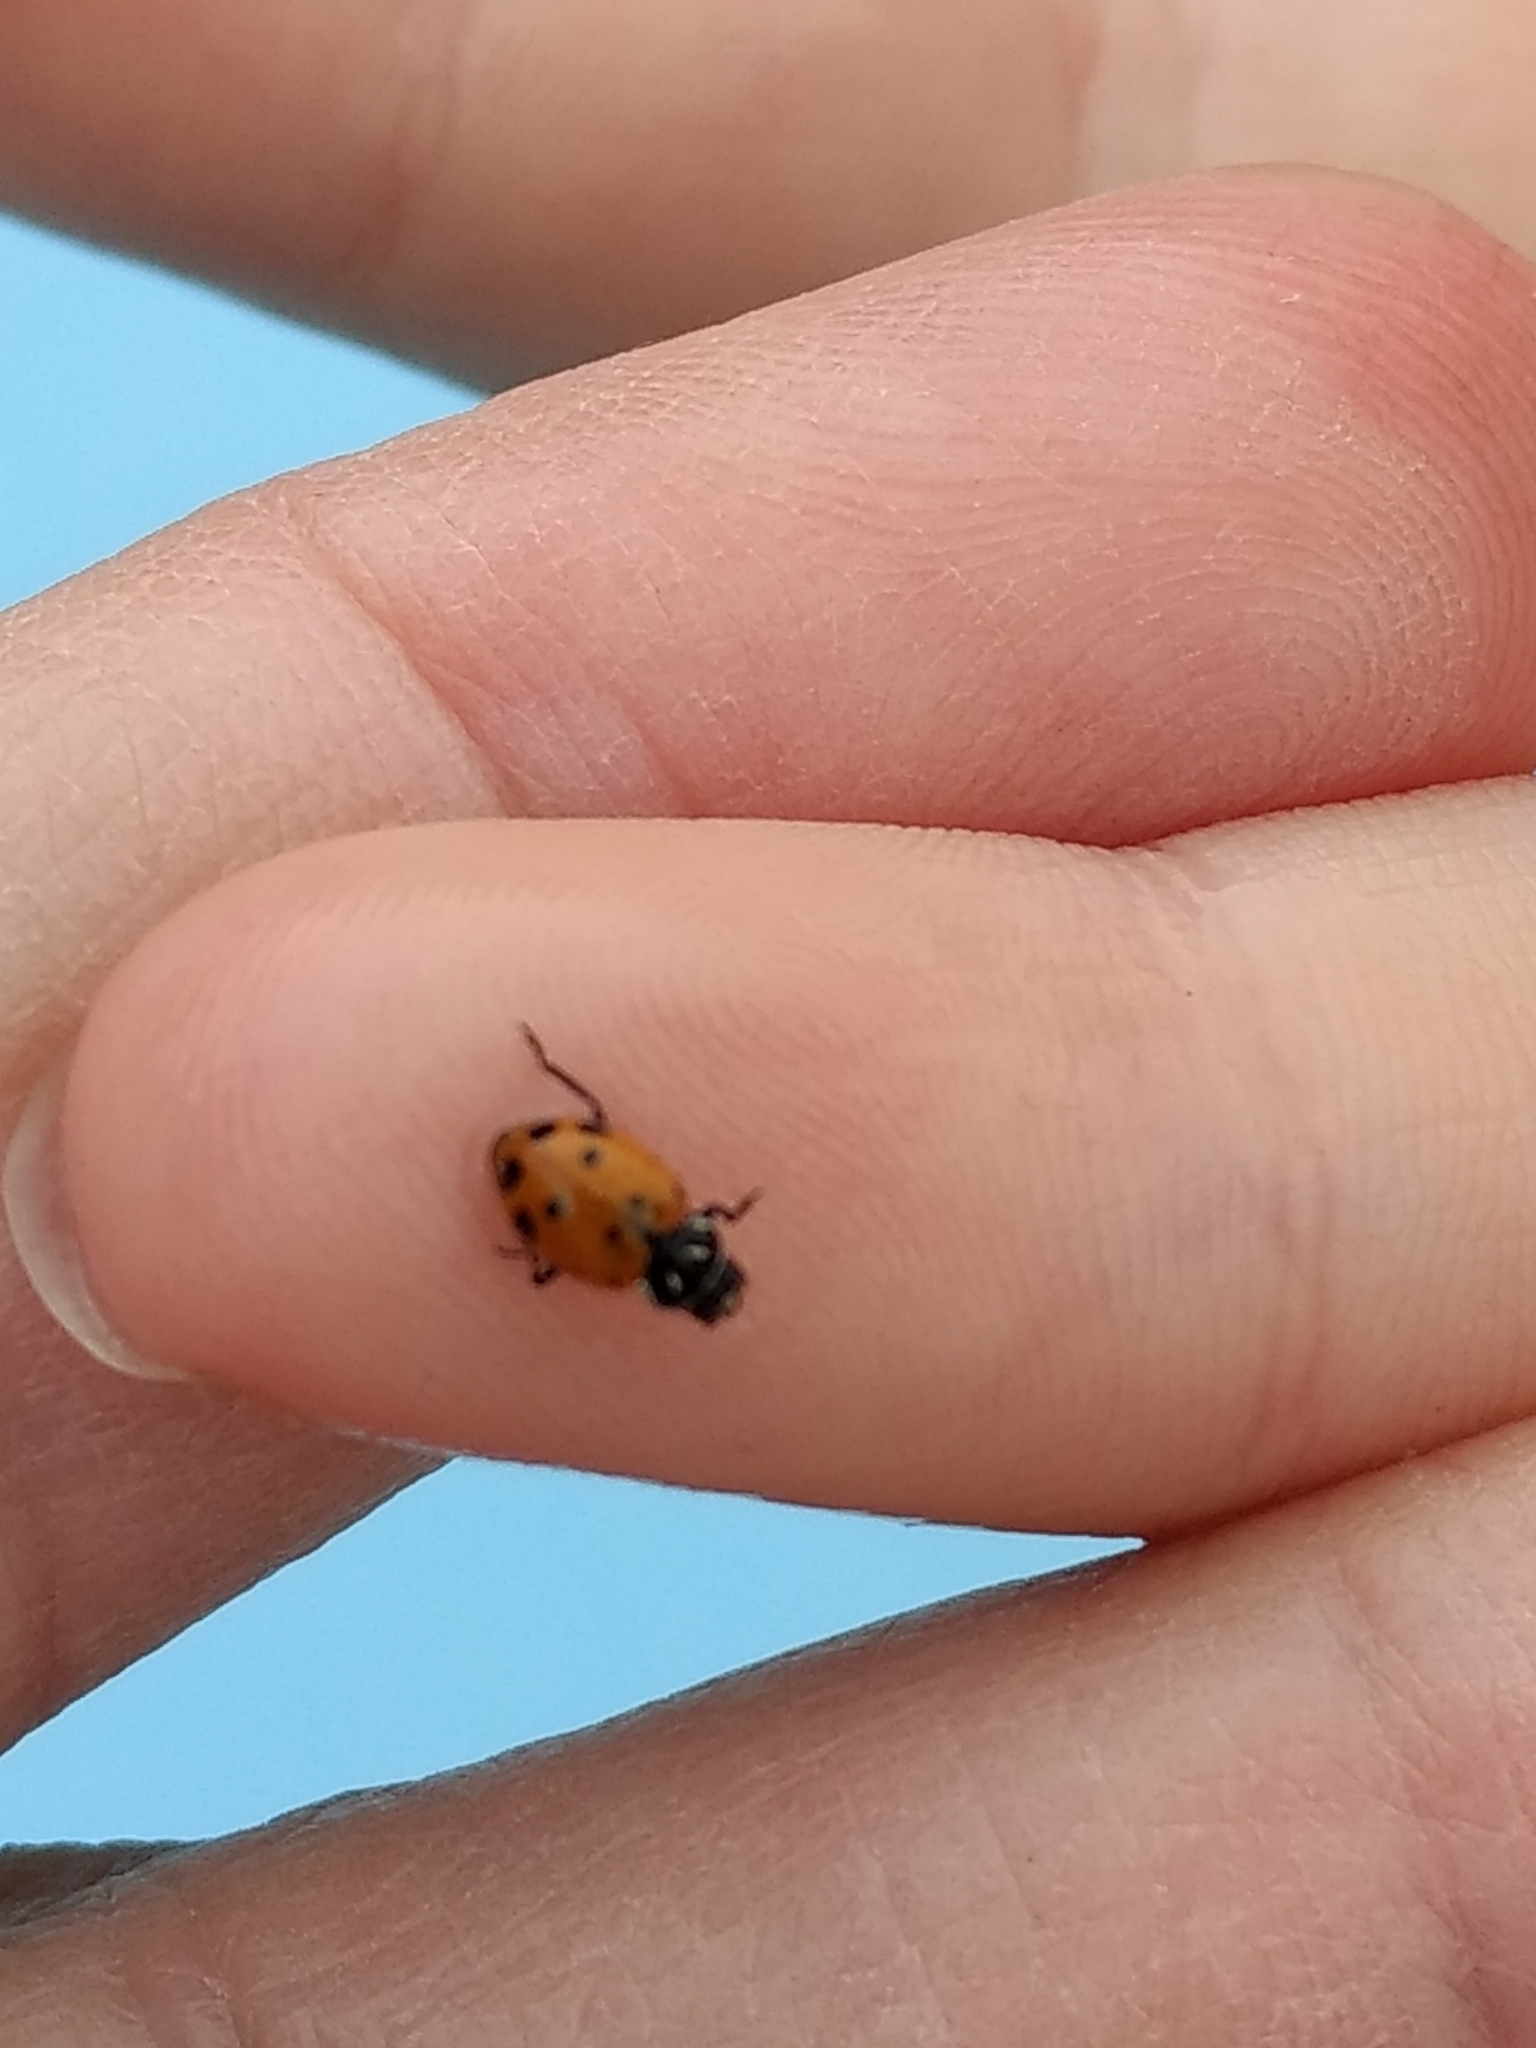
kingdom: Animalia
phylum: Arthropoda
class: Insecta
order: Coleoptera
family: Coccinellidae
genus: Hippodamia
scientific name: Hippodamia convergens
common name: Convergent lady beetle
